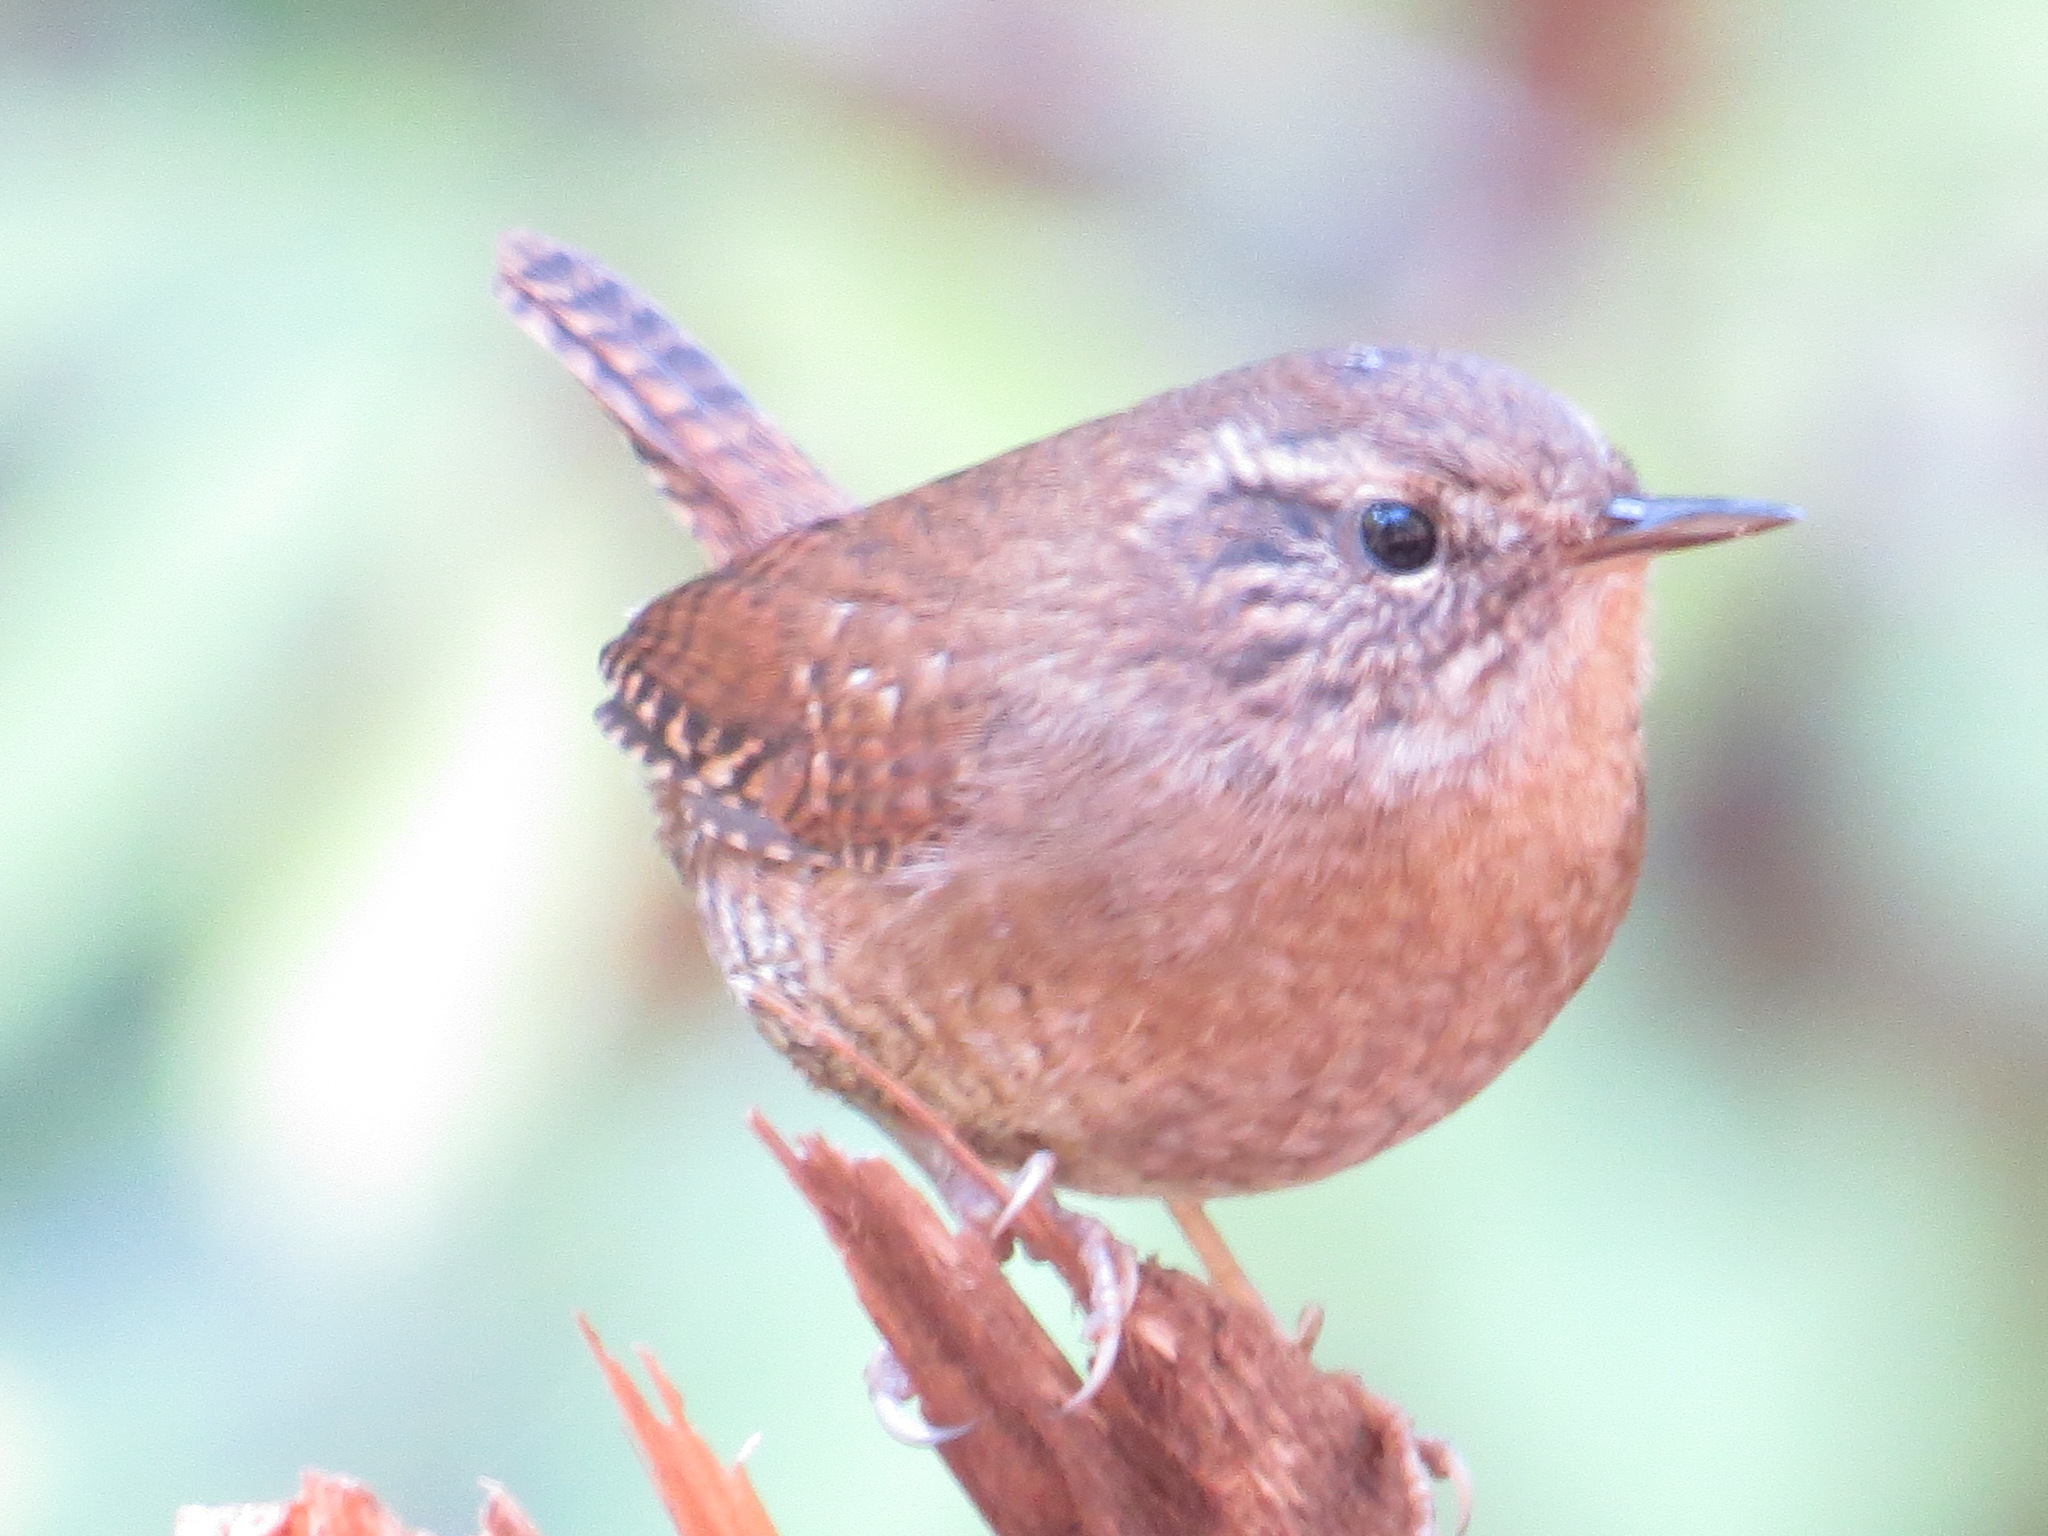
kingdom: Animalia
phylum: Chordata
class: Aves
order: Passeriformes
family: Troglodytidae
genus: Troglodytes
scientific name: Troglodytes pacificus
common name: Pacific wren
